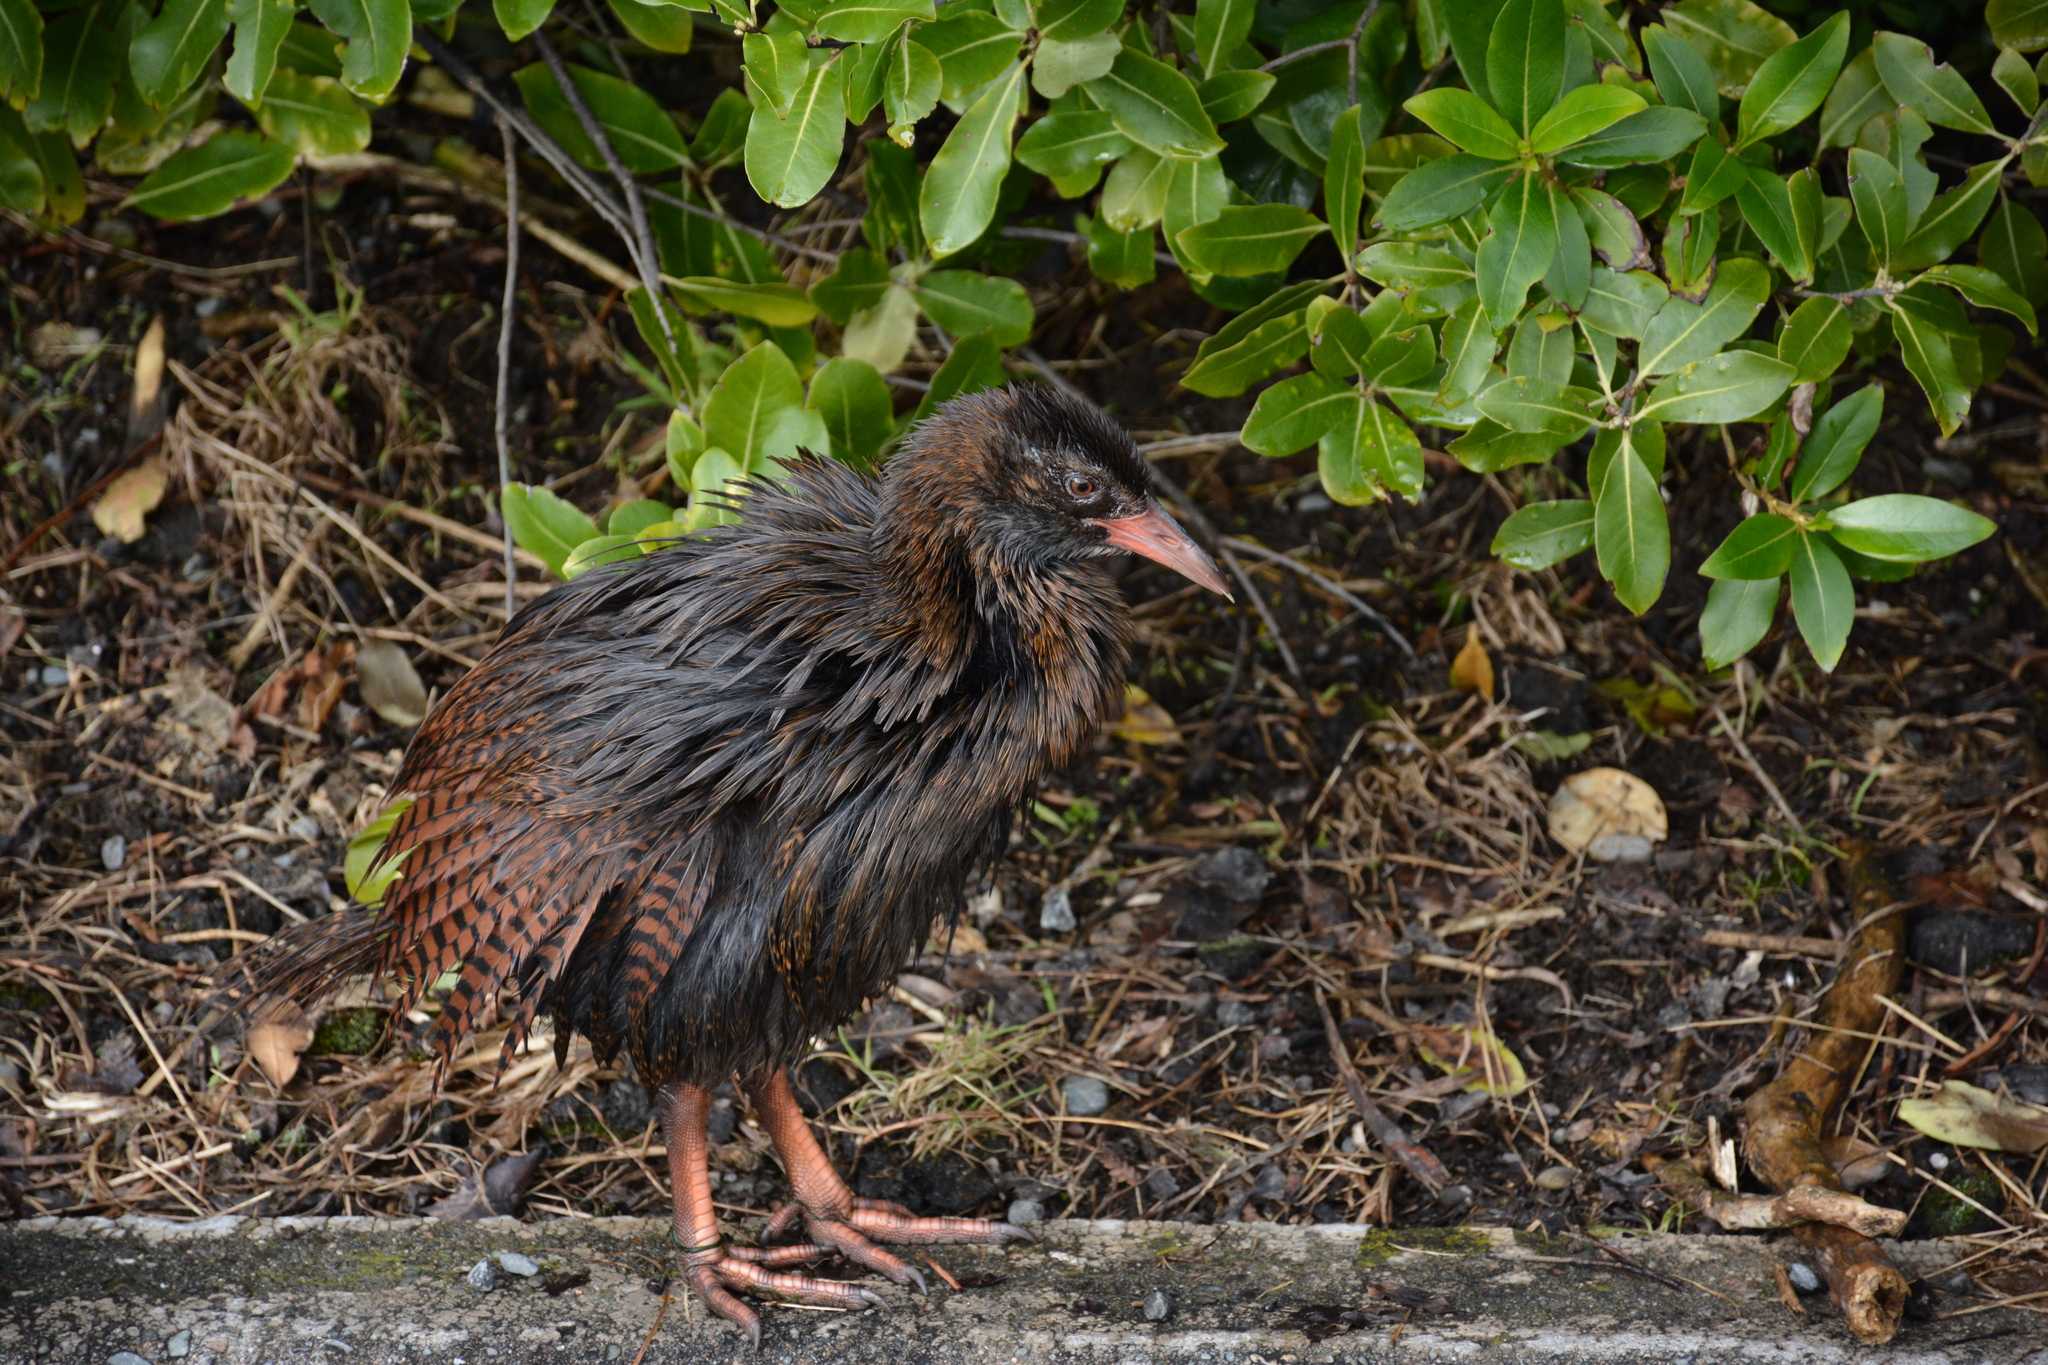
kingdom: Animalia
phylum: Chordata
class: Aves
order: Gruiformes
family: Rallidae
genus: Gallirallus
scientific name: Gallirallus australis
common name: Weka
